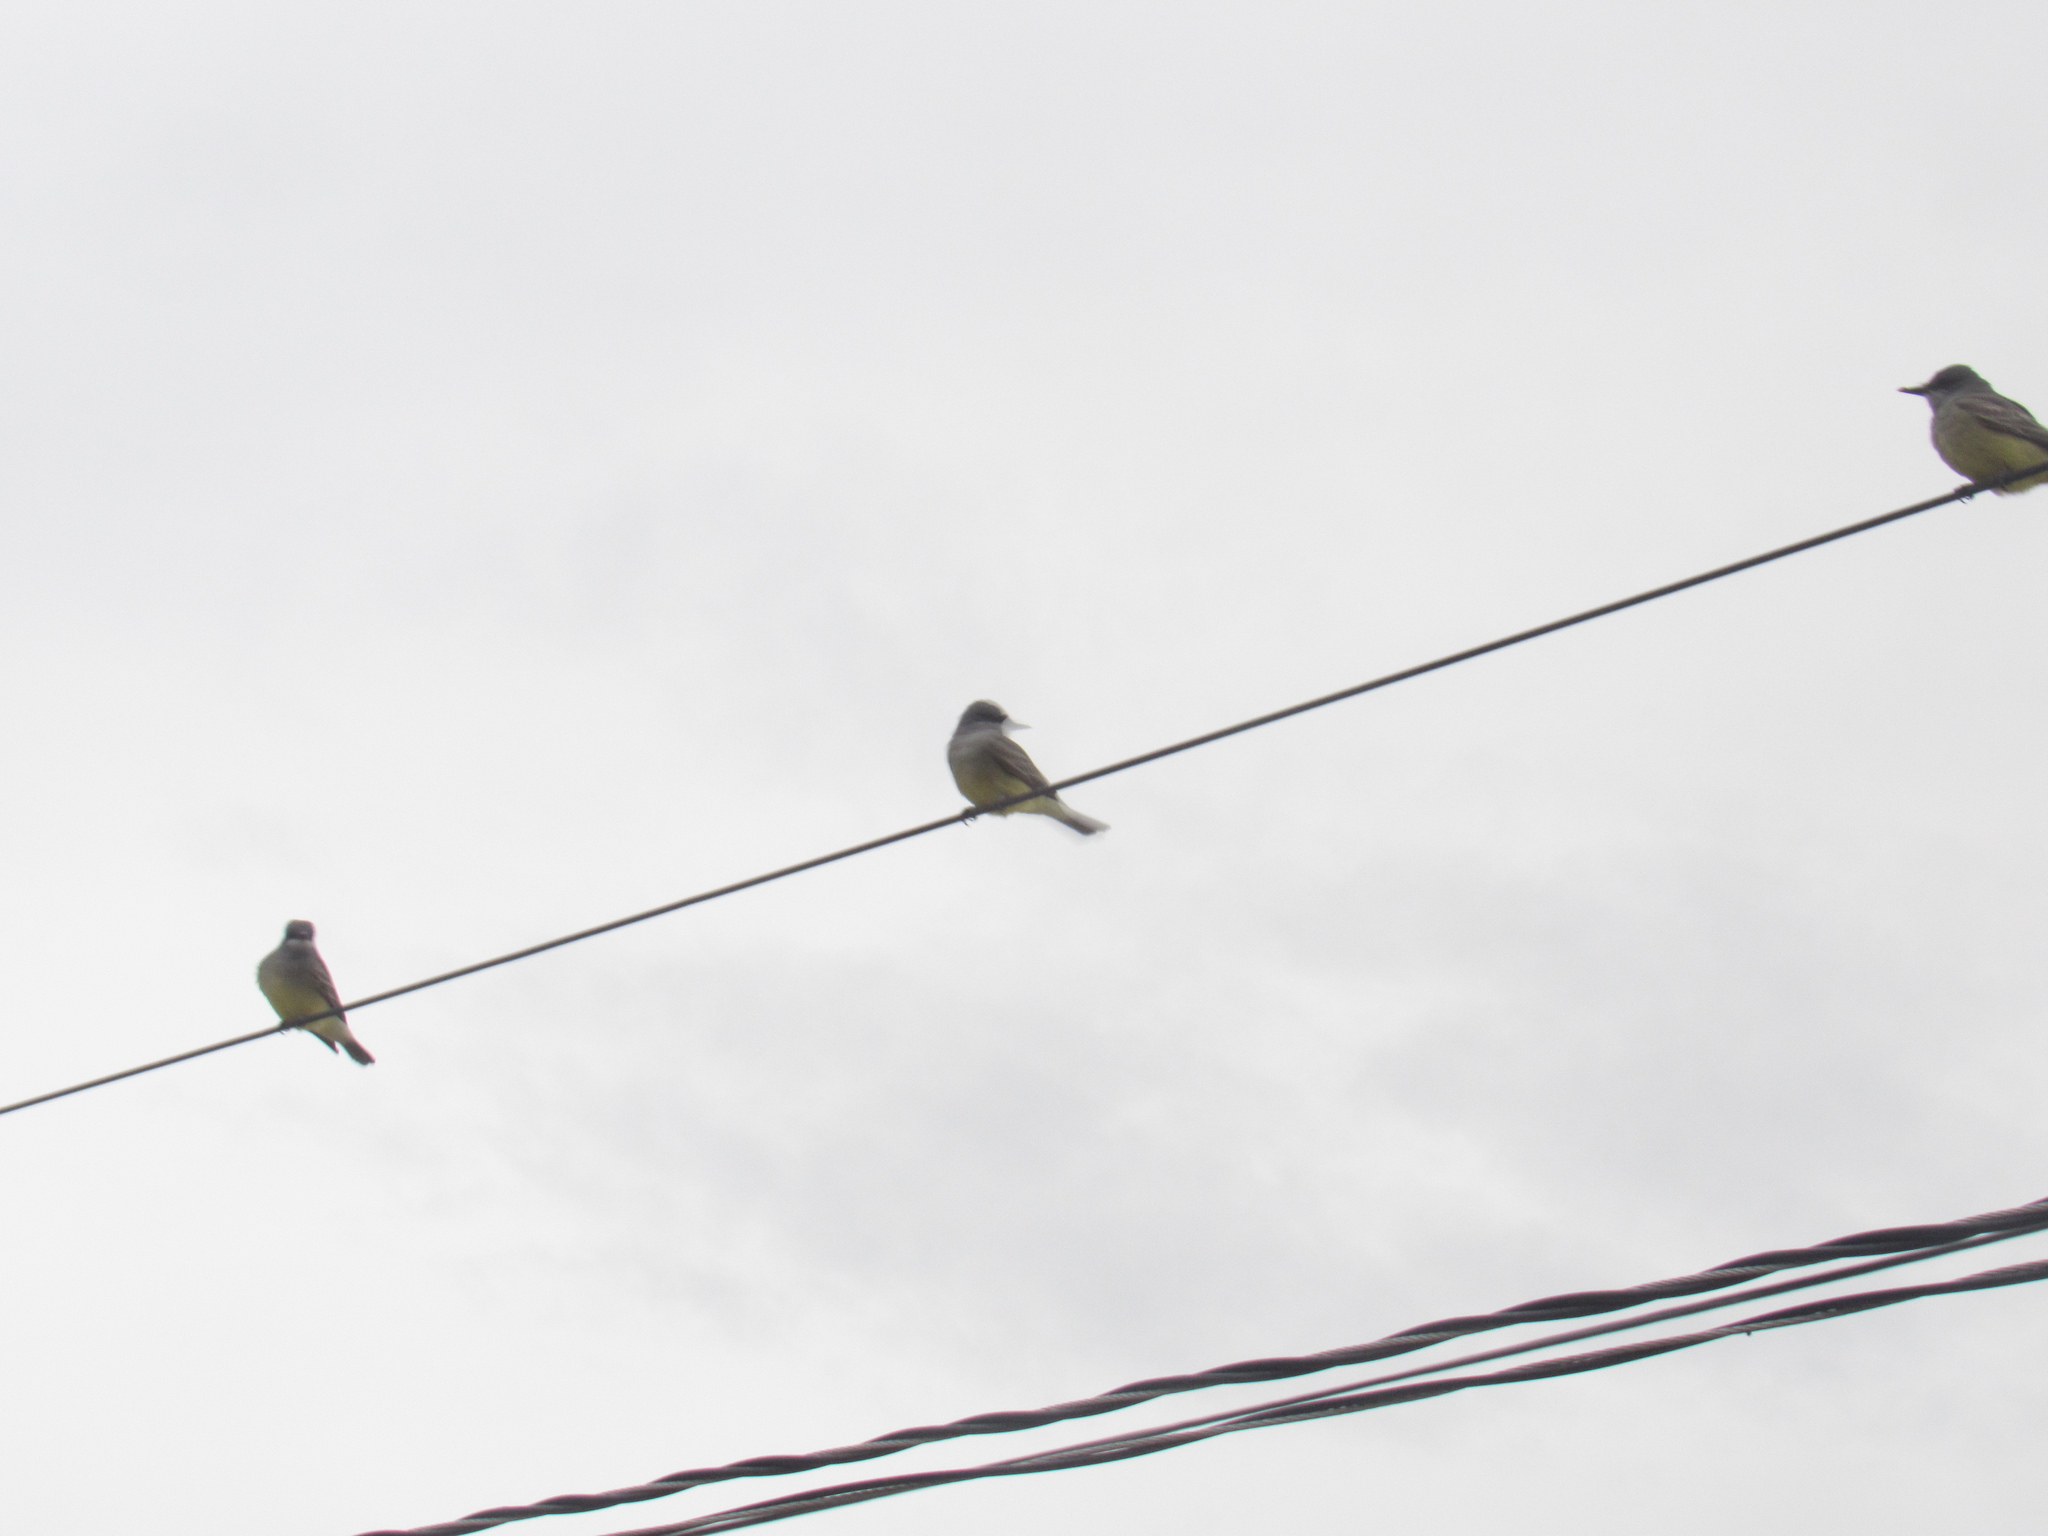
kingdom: Animalia
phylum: Chordata
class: Aves
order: Passeriformes
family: Tyrannidae
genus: Tyrannus
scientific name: Tyrannus vociferans
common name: Cassin's kingbird
